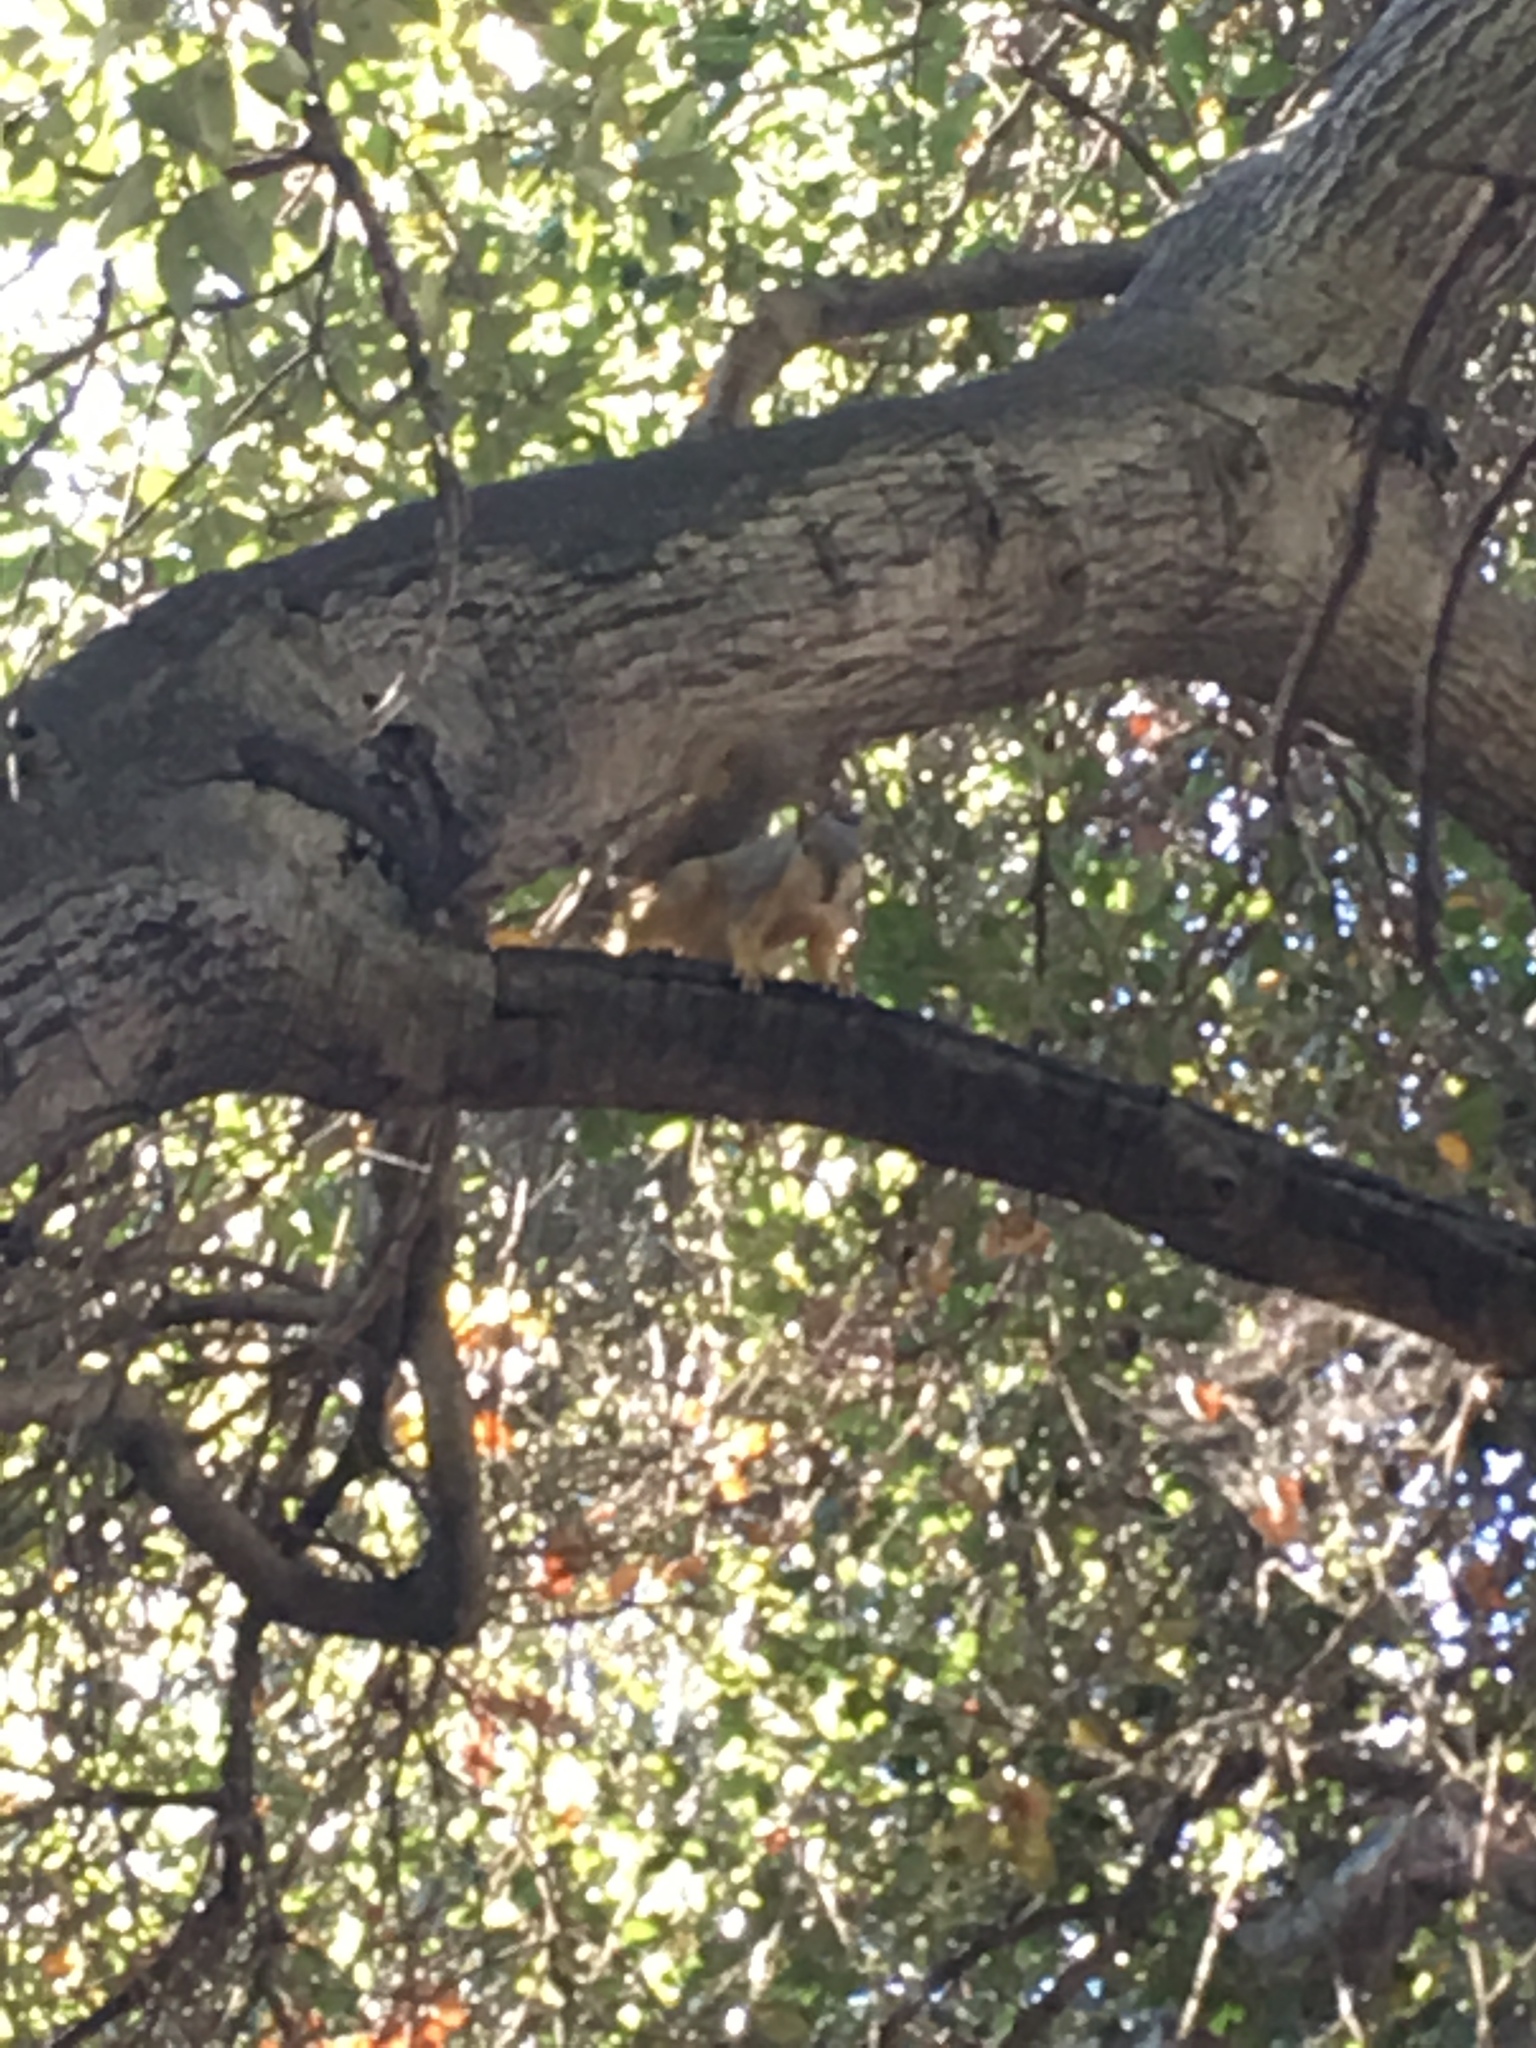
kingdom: Animalia
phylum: Chordata
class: Mammalia
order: Rodentia
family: Sciuridae
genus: Sciurus
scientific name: Sciurus niger
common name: Fox squirrel
